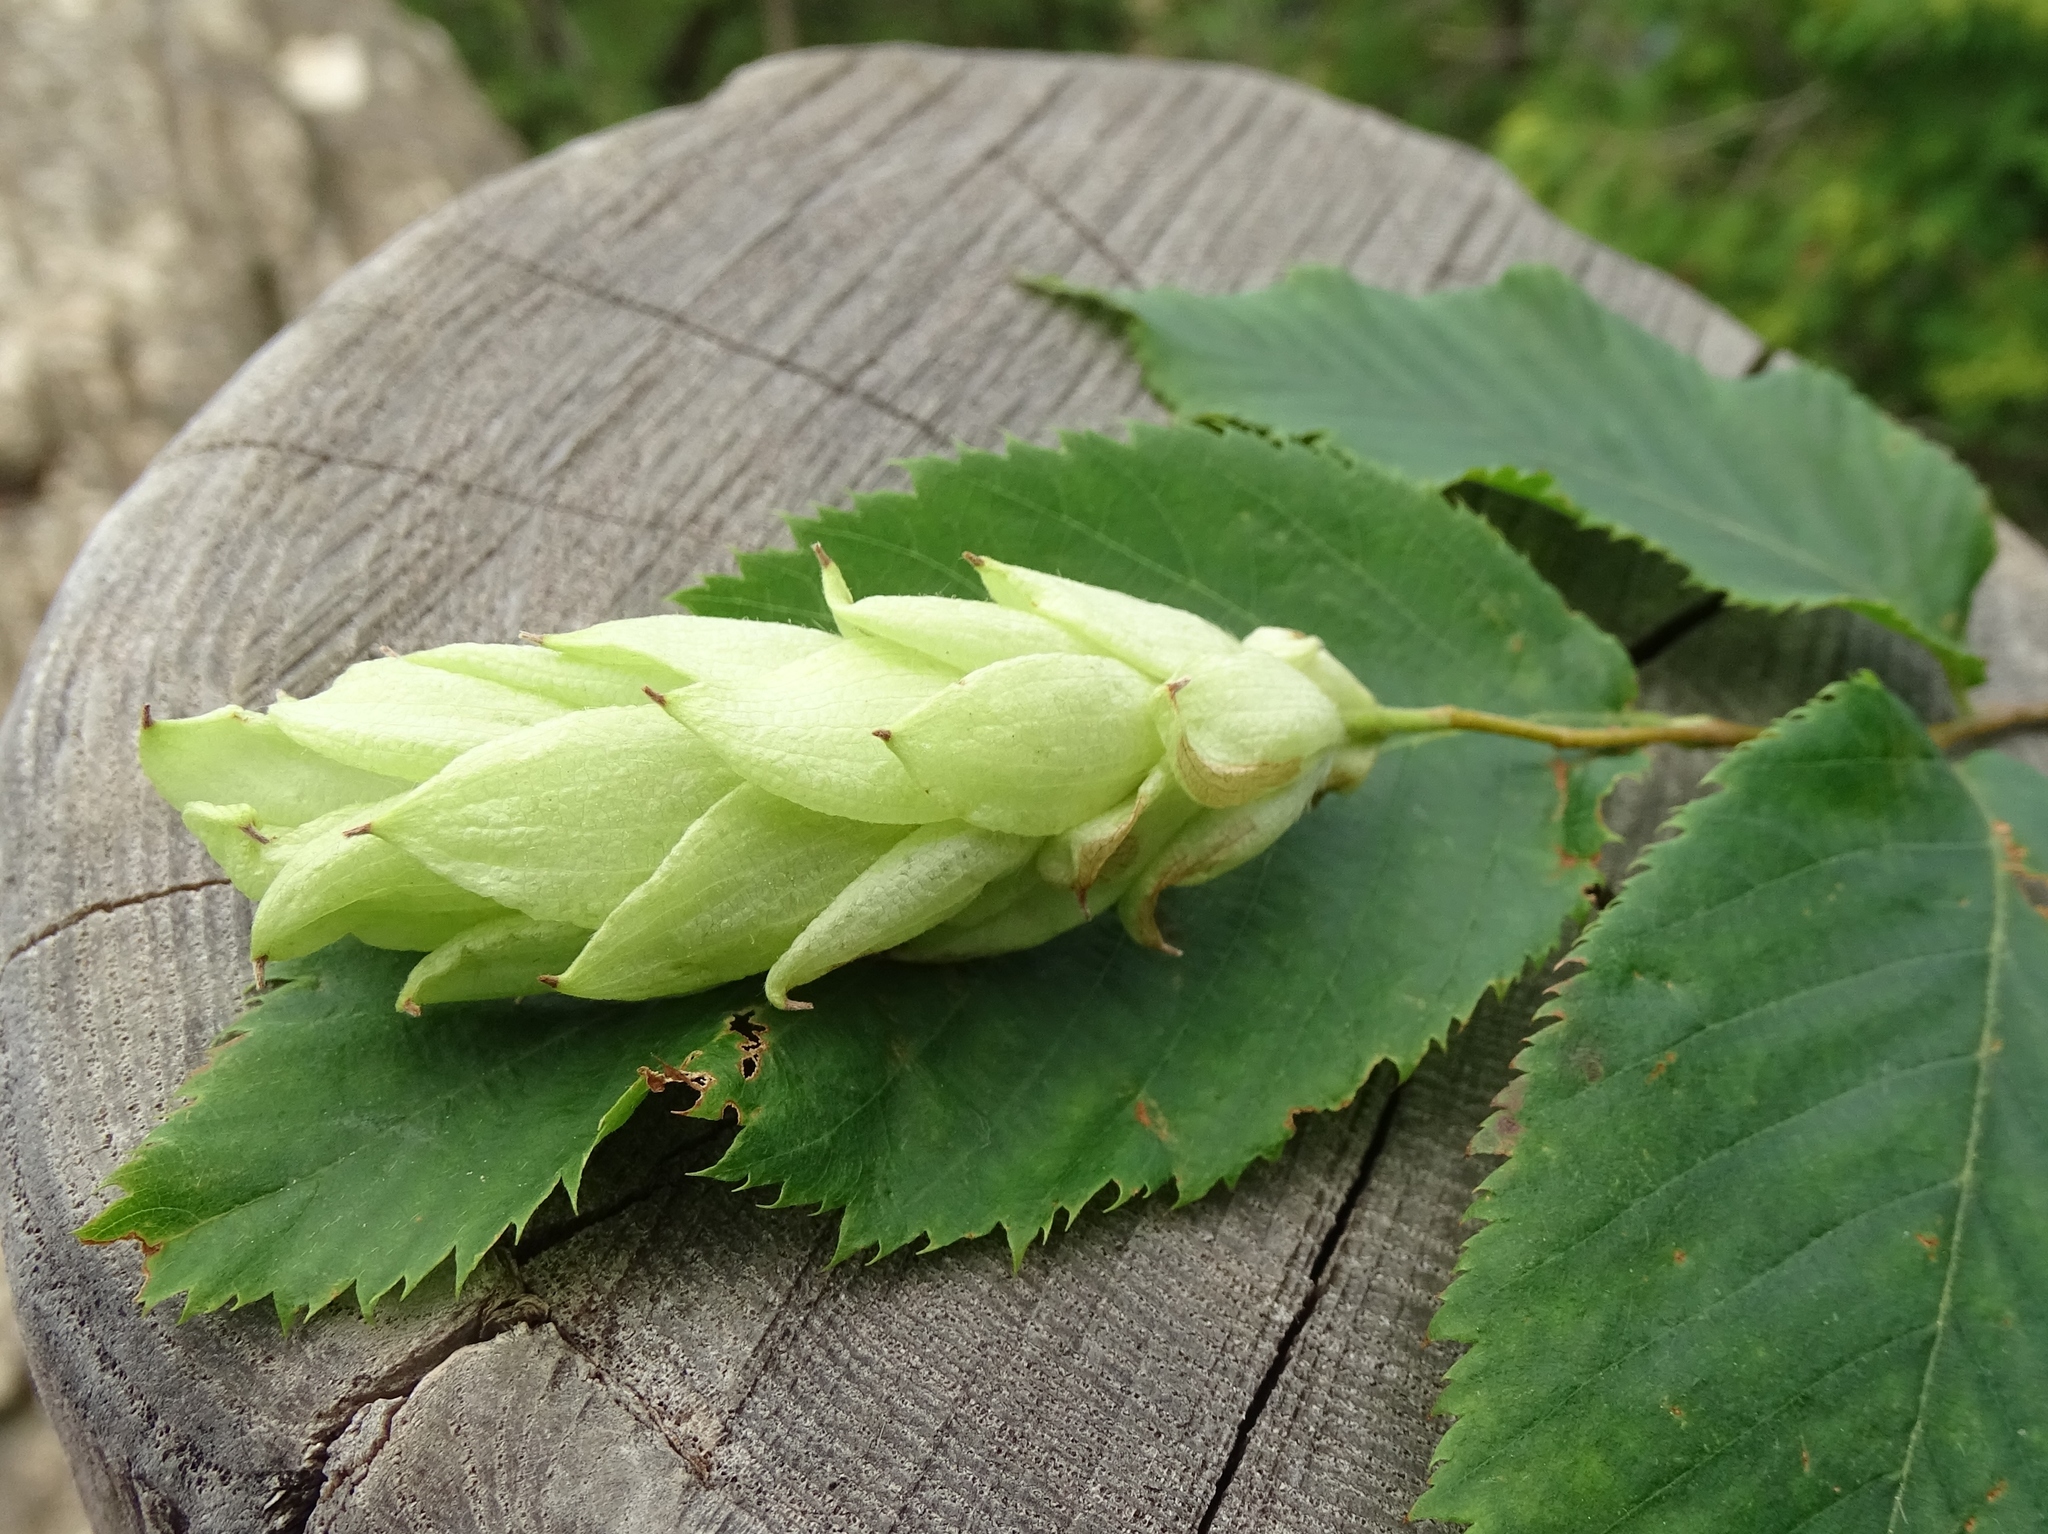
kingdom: Plantae
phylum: Tracheophyta
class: Magnoliopsida
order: Fagales
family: Betulaceae
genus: Ostrya
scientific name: Ostrya virginiana
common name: Ironwood
